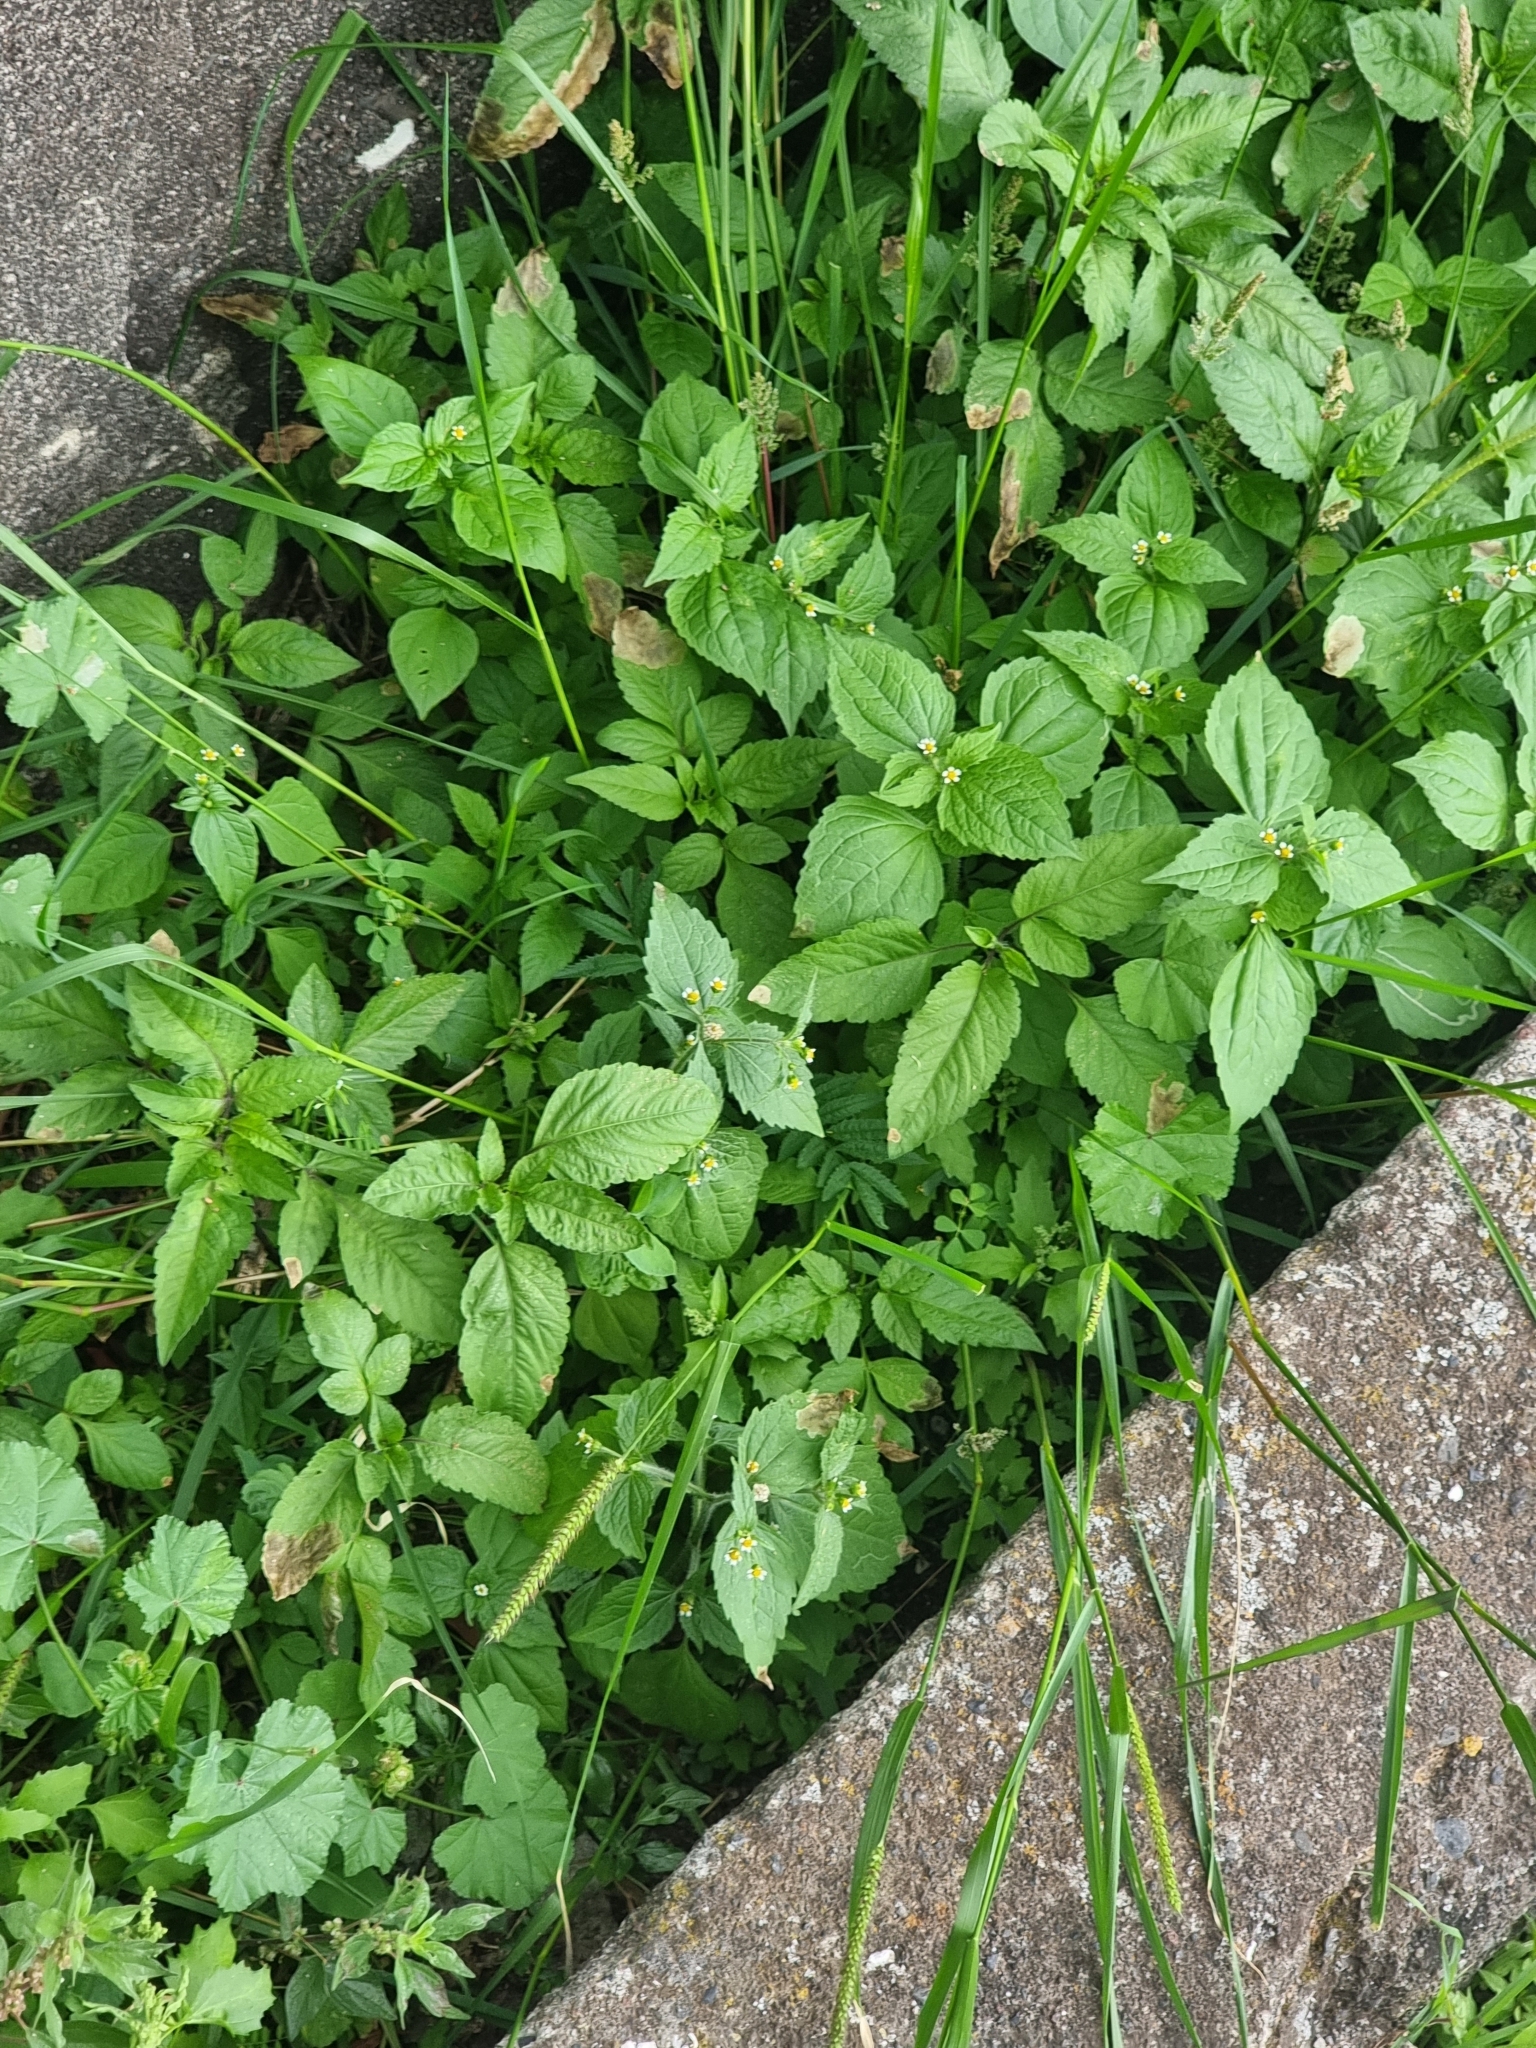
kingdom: Plantae
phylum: Tracheophyta
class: Magnoliopsida
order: Asterales
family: Asteraceae
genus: Galinsoga
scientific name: Galinsoga quadriradiata
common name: Shaggy soldier
